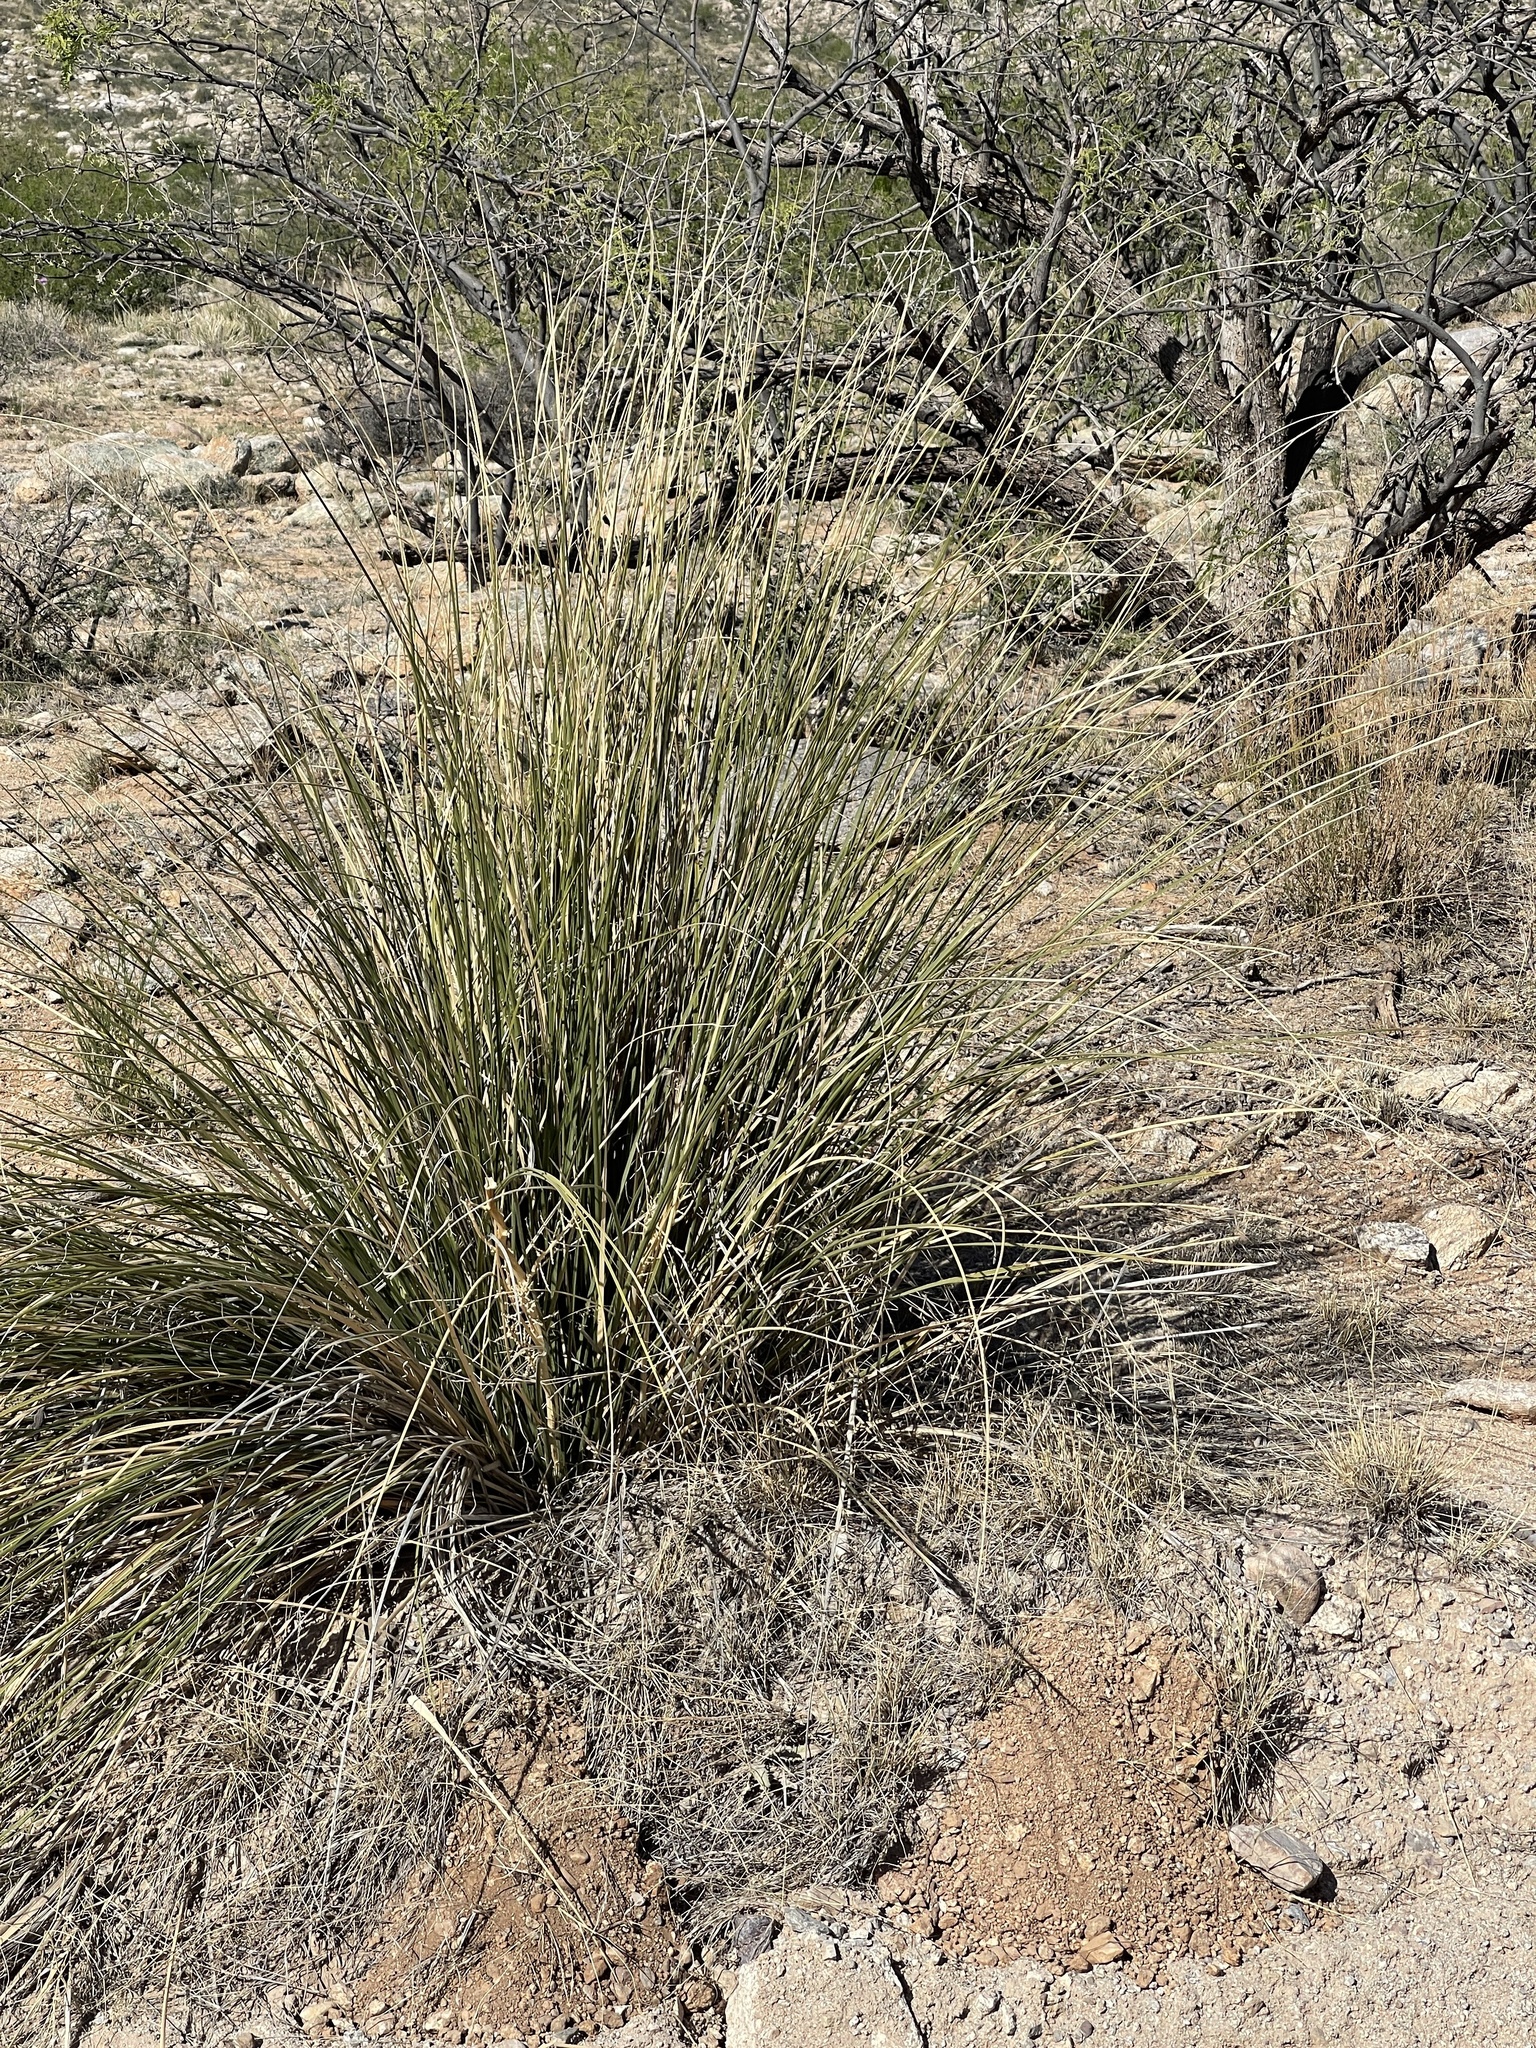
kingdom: Plantae
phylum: Tracheophyta
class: Liliopsida
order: Asparagales
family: Asparagaceae
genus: Nolina
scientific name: Nolina microcarpa
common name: Bear-grass
